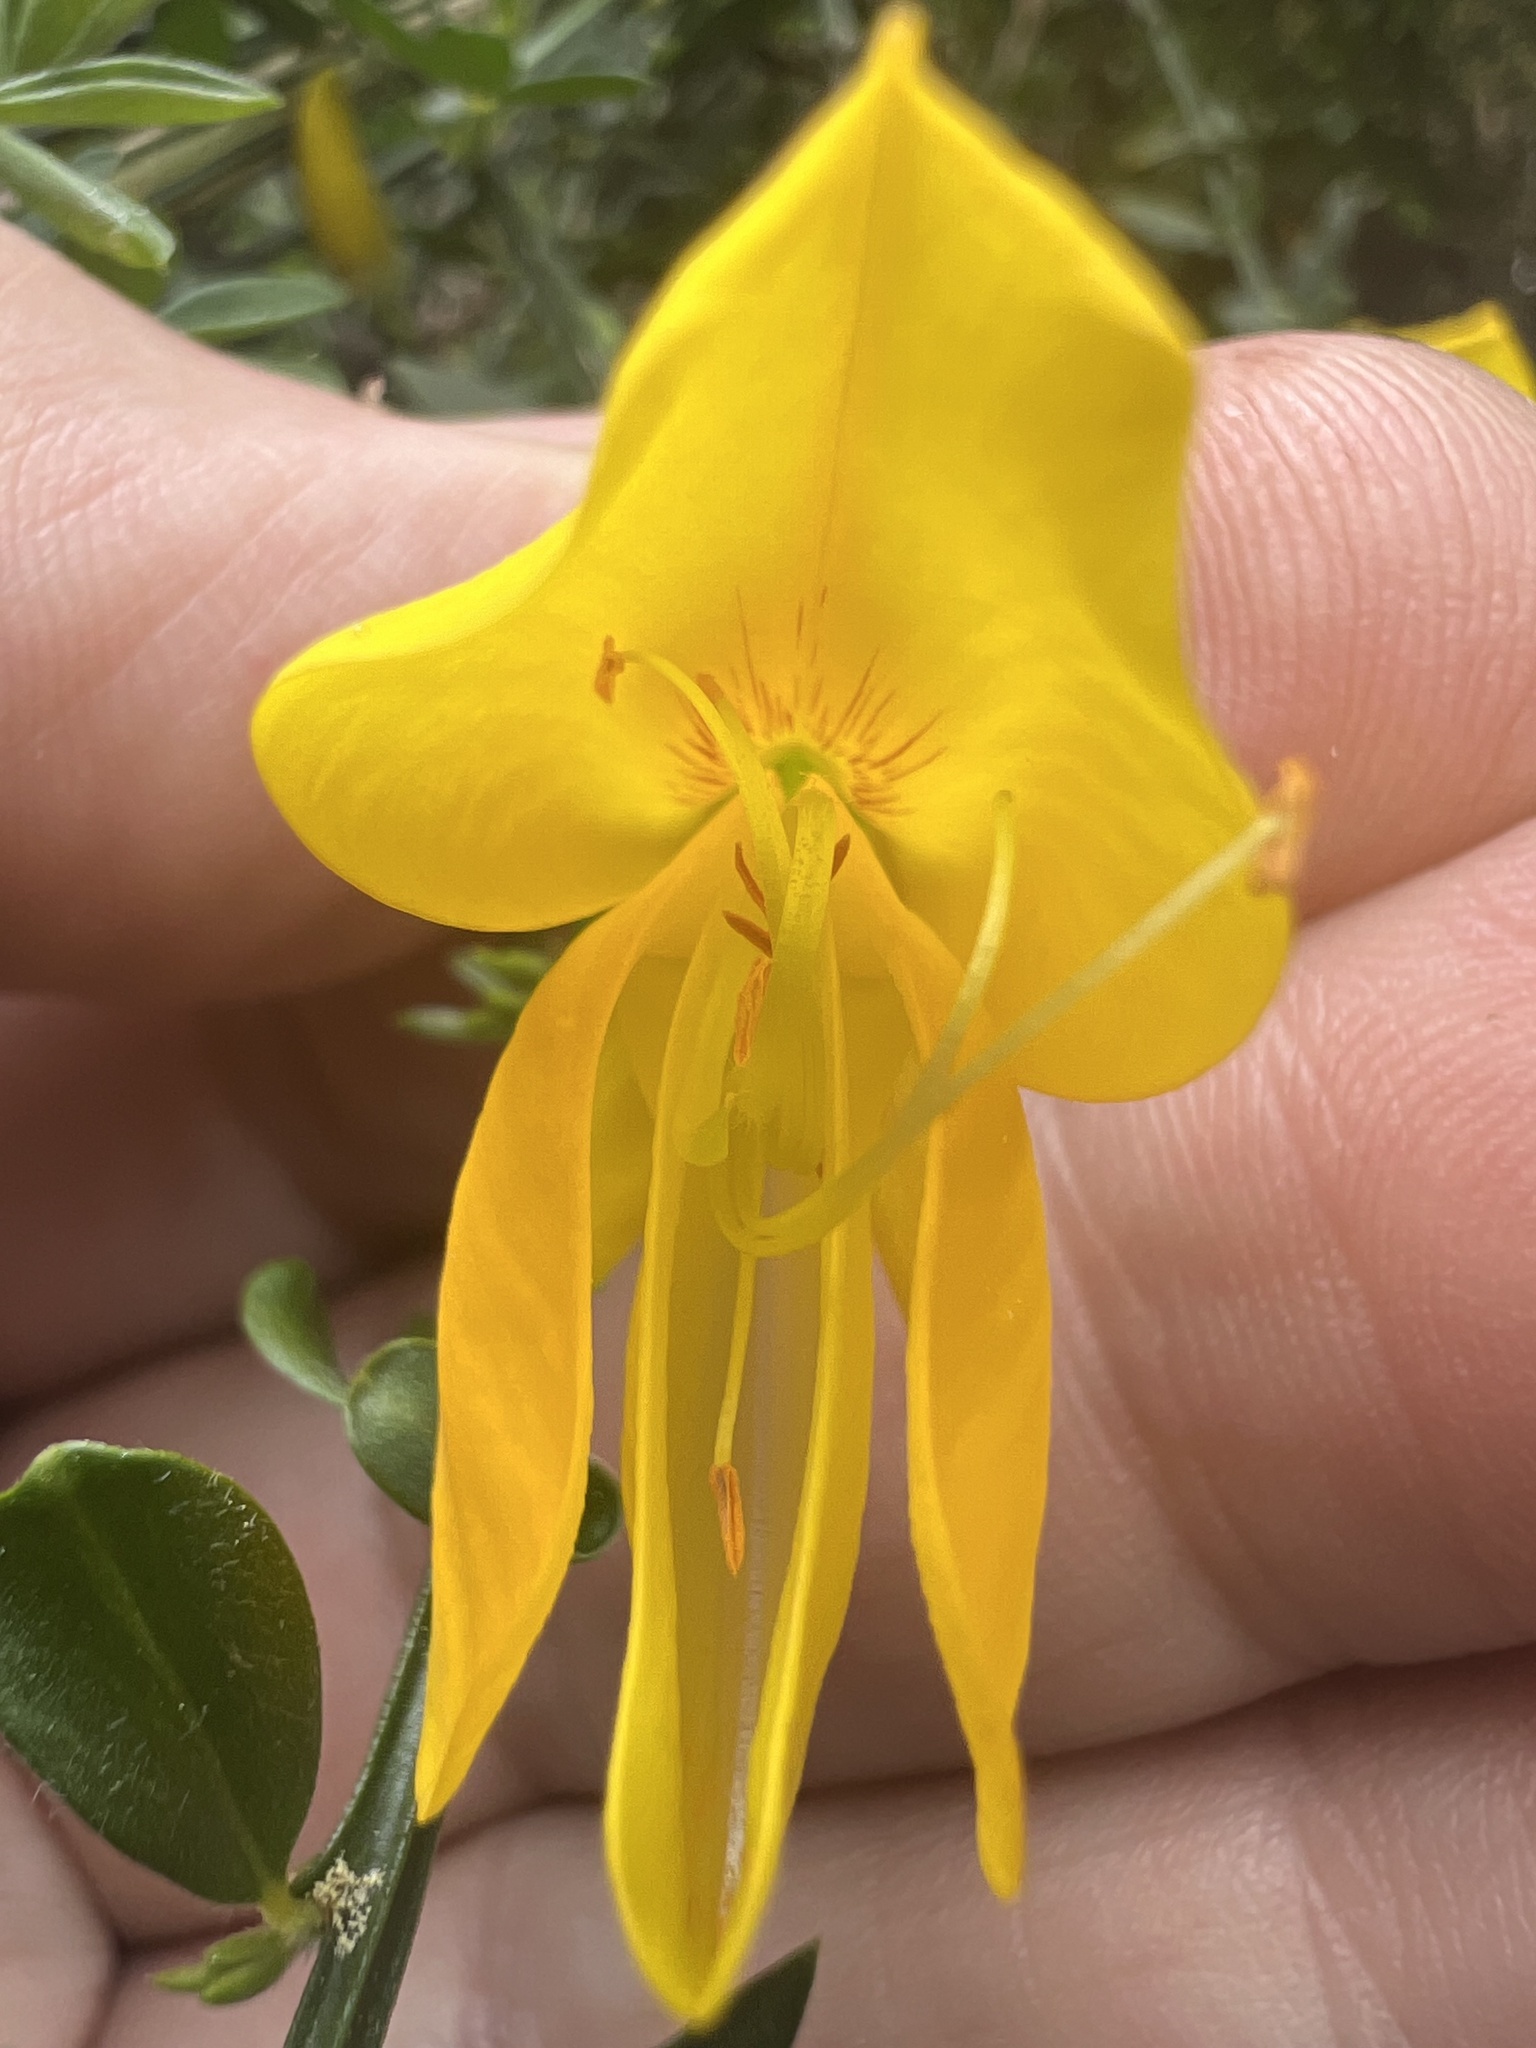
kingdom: Plantae
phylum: Tracheophyta
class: Magnoliopsida
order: Fabales
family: Fabaceae
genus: Cytisus
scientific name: Cytisus scoparius
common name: Scotch broom
